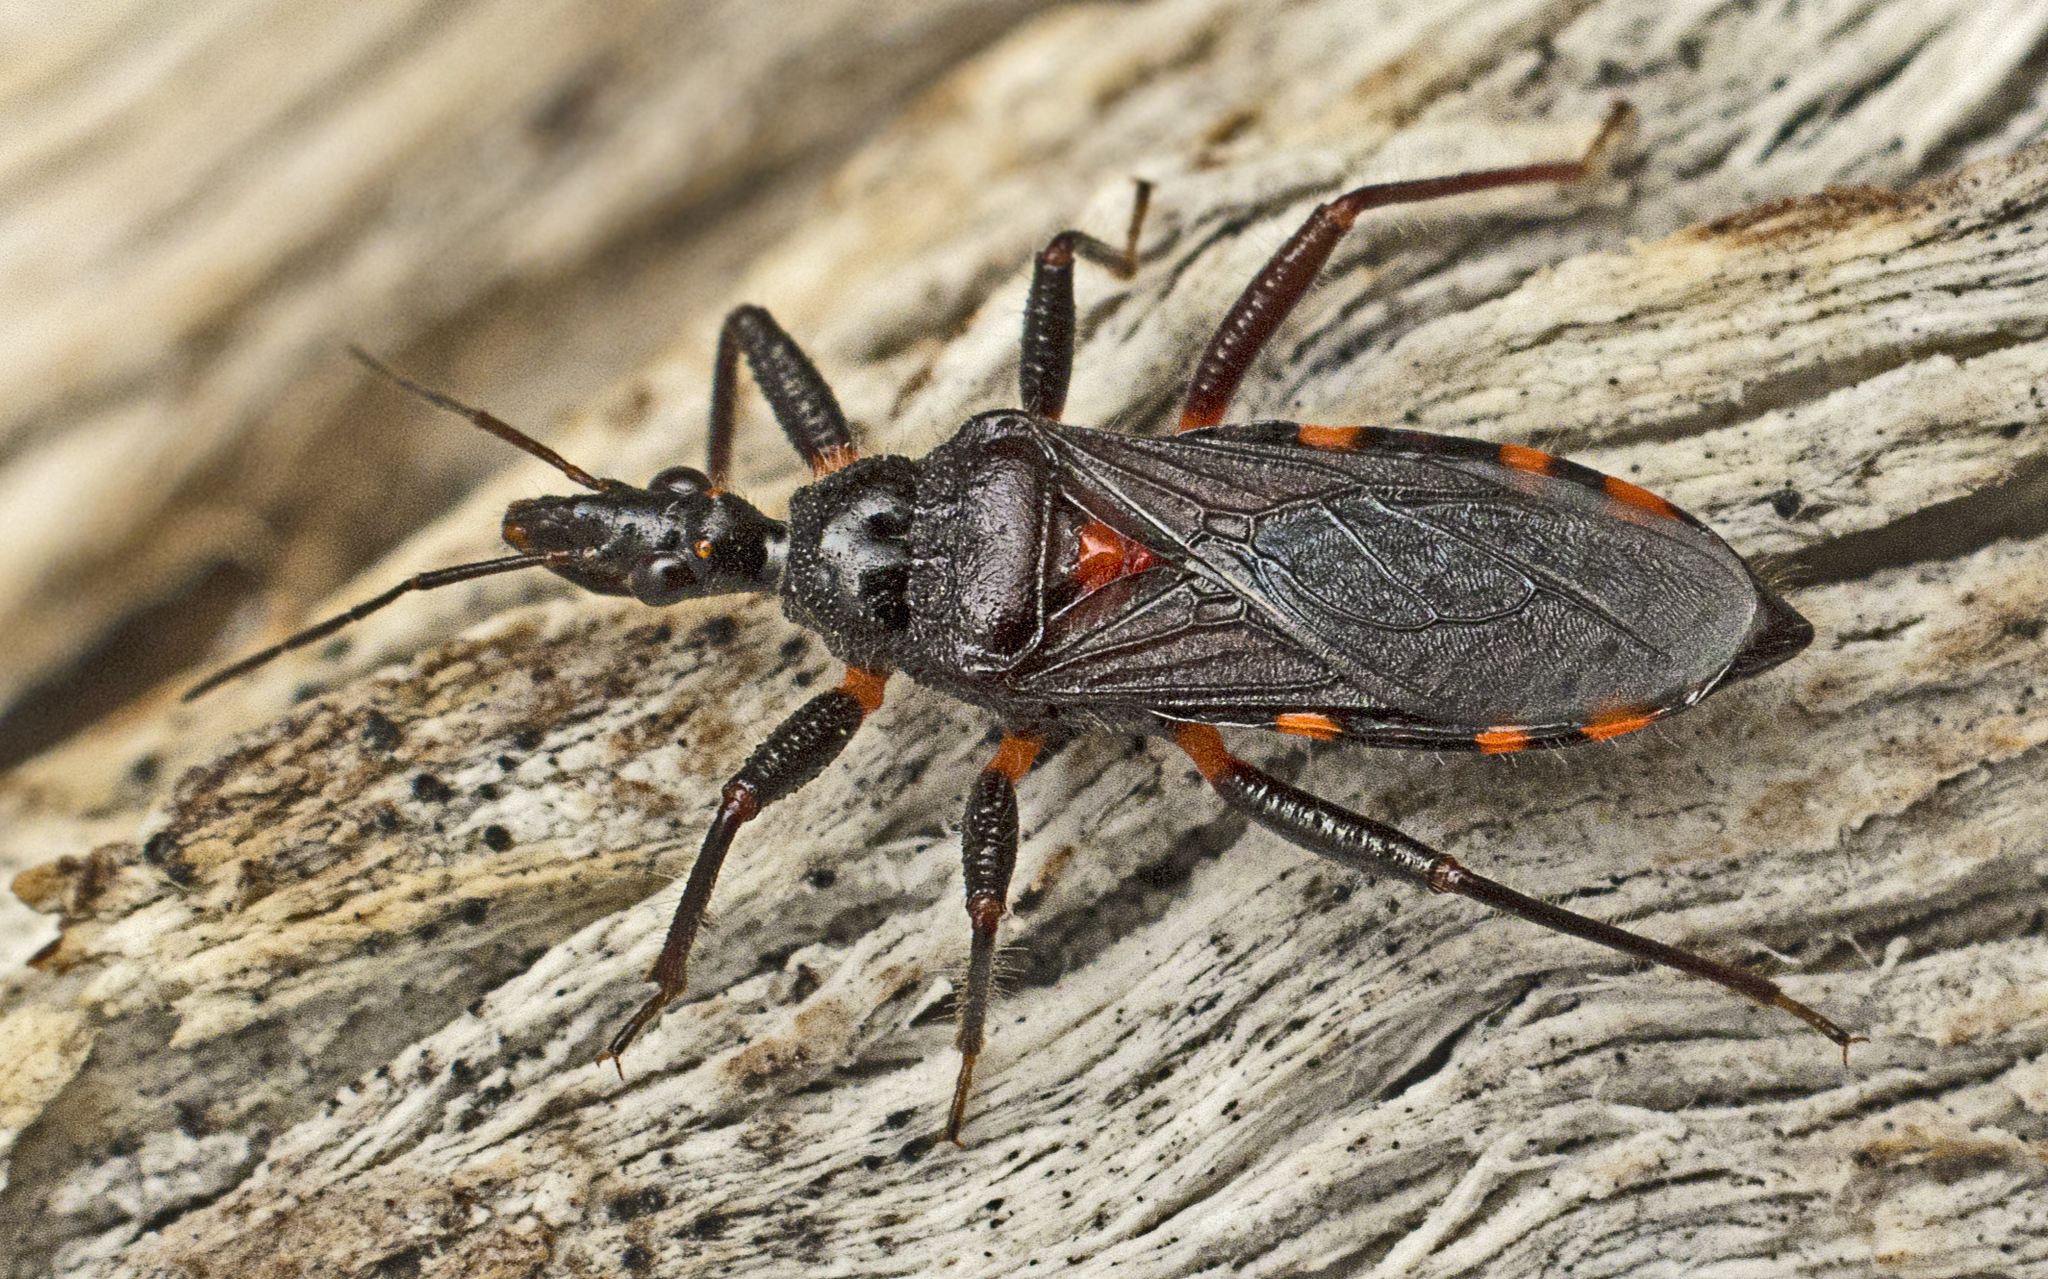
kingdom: Animalia
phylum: Arthropoda
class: Insecta
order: Hemiptera
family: Reduviidae
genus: Neohavinthus
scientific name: Neohavinthus pentatoma
